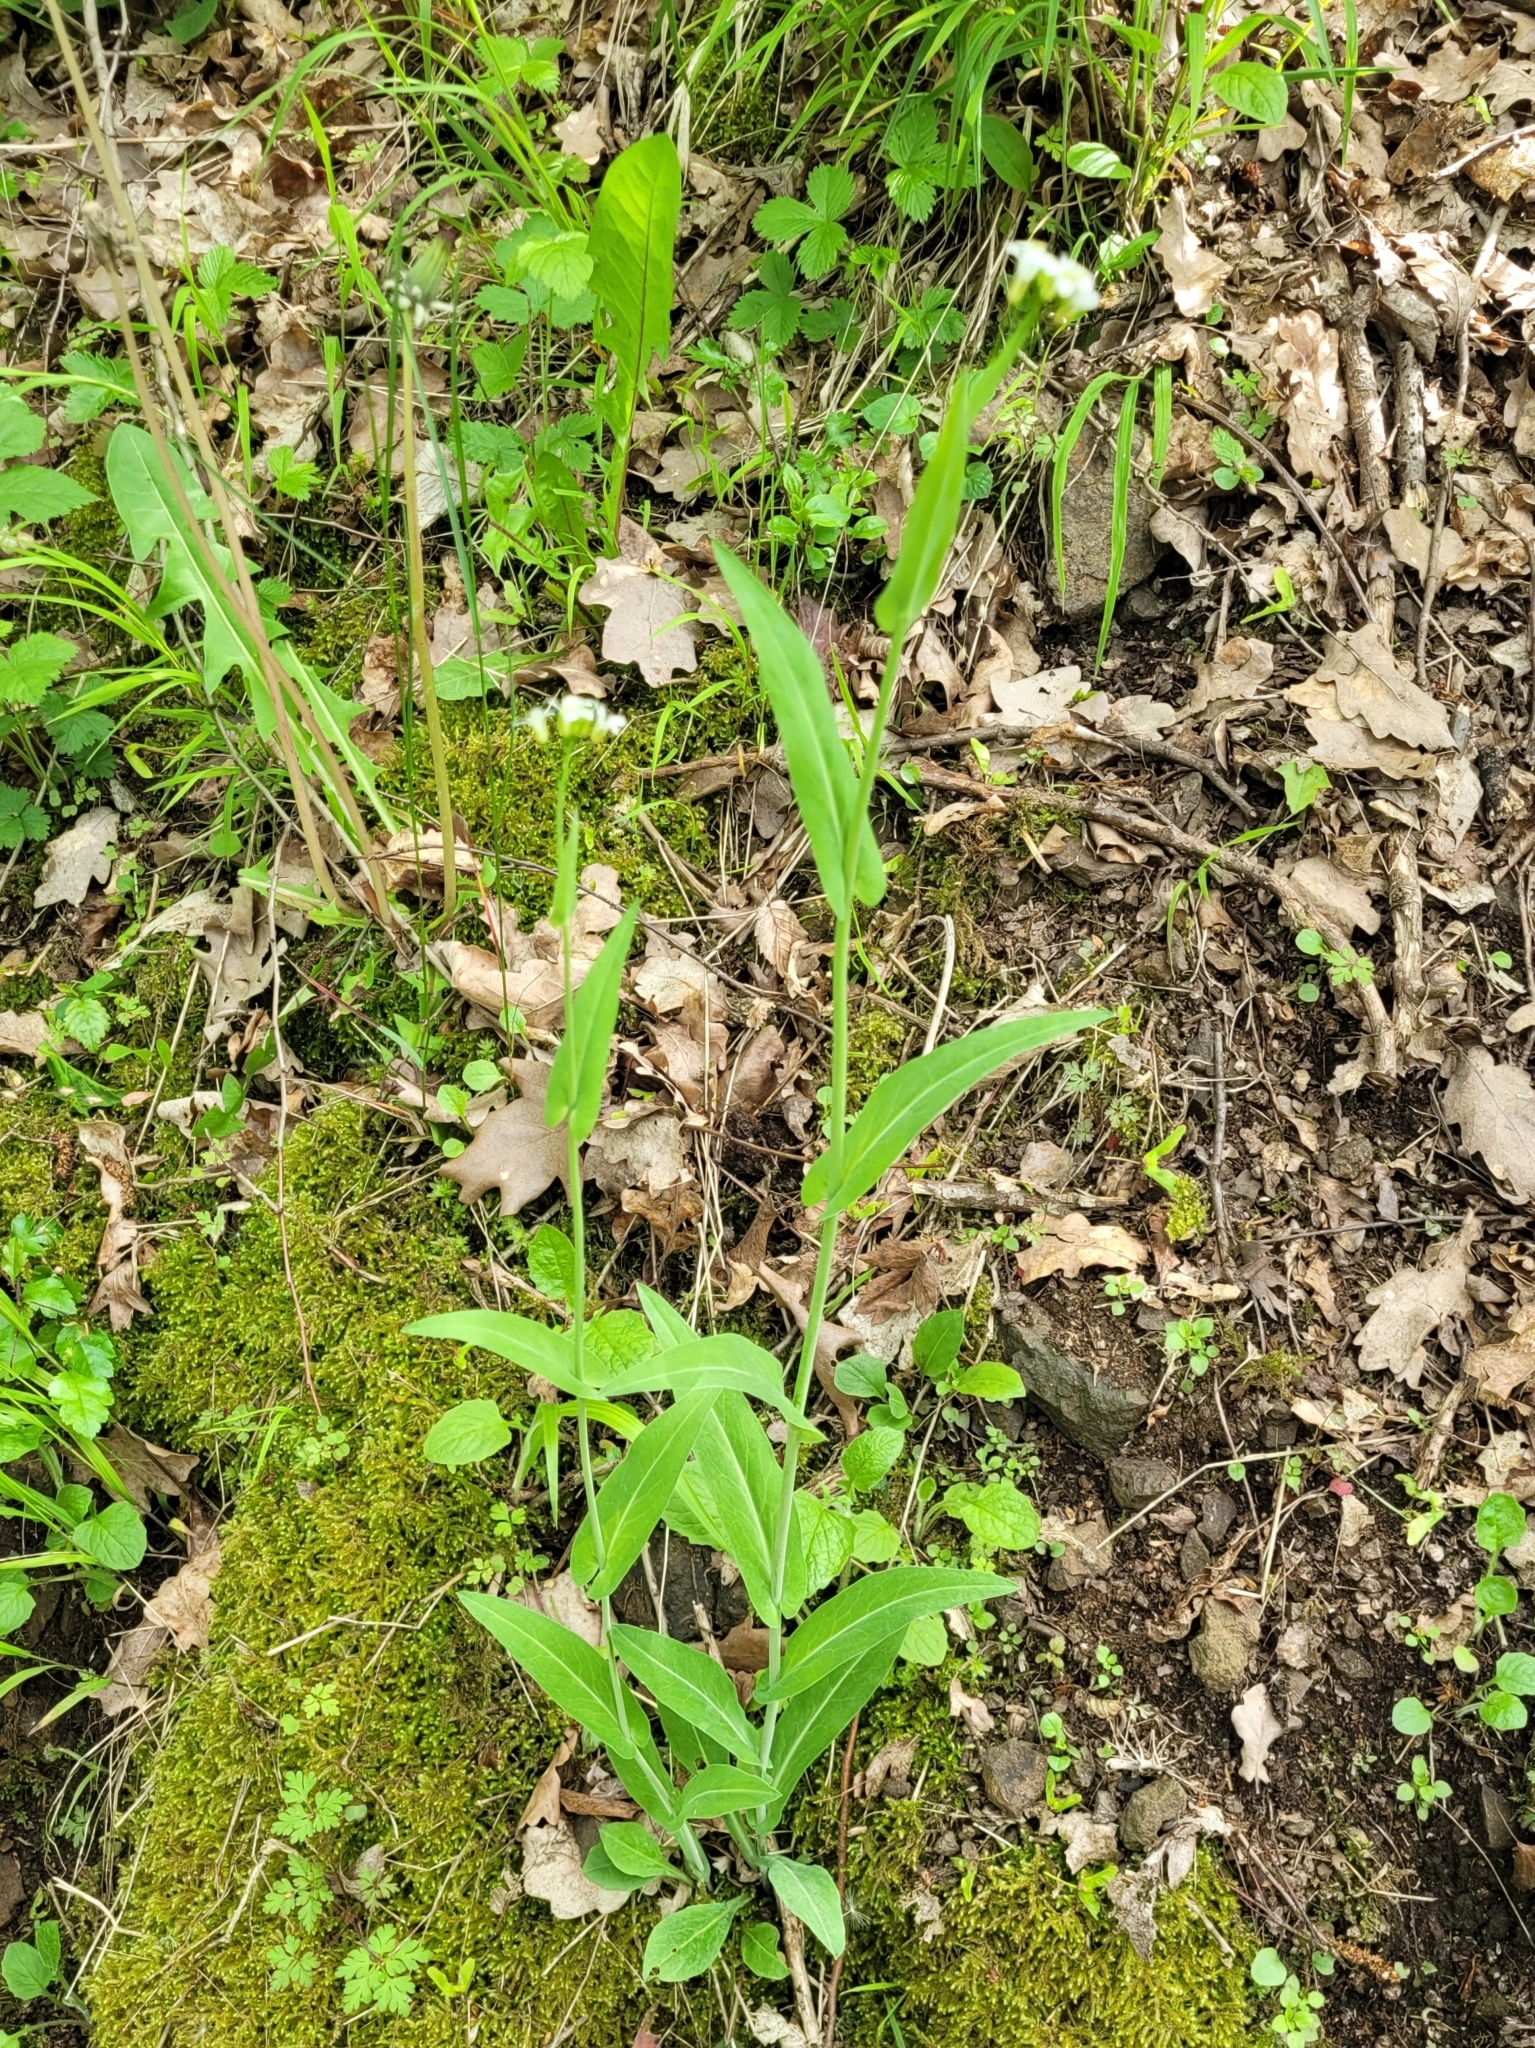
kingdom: Plantae
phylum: Tracheophyta
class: Magnoliopsida
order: Brassicales
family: Brassicaceae
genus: Fourraea
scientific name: Fourraea alpina
